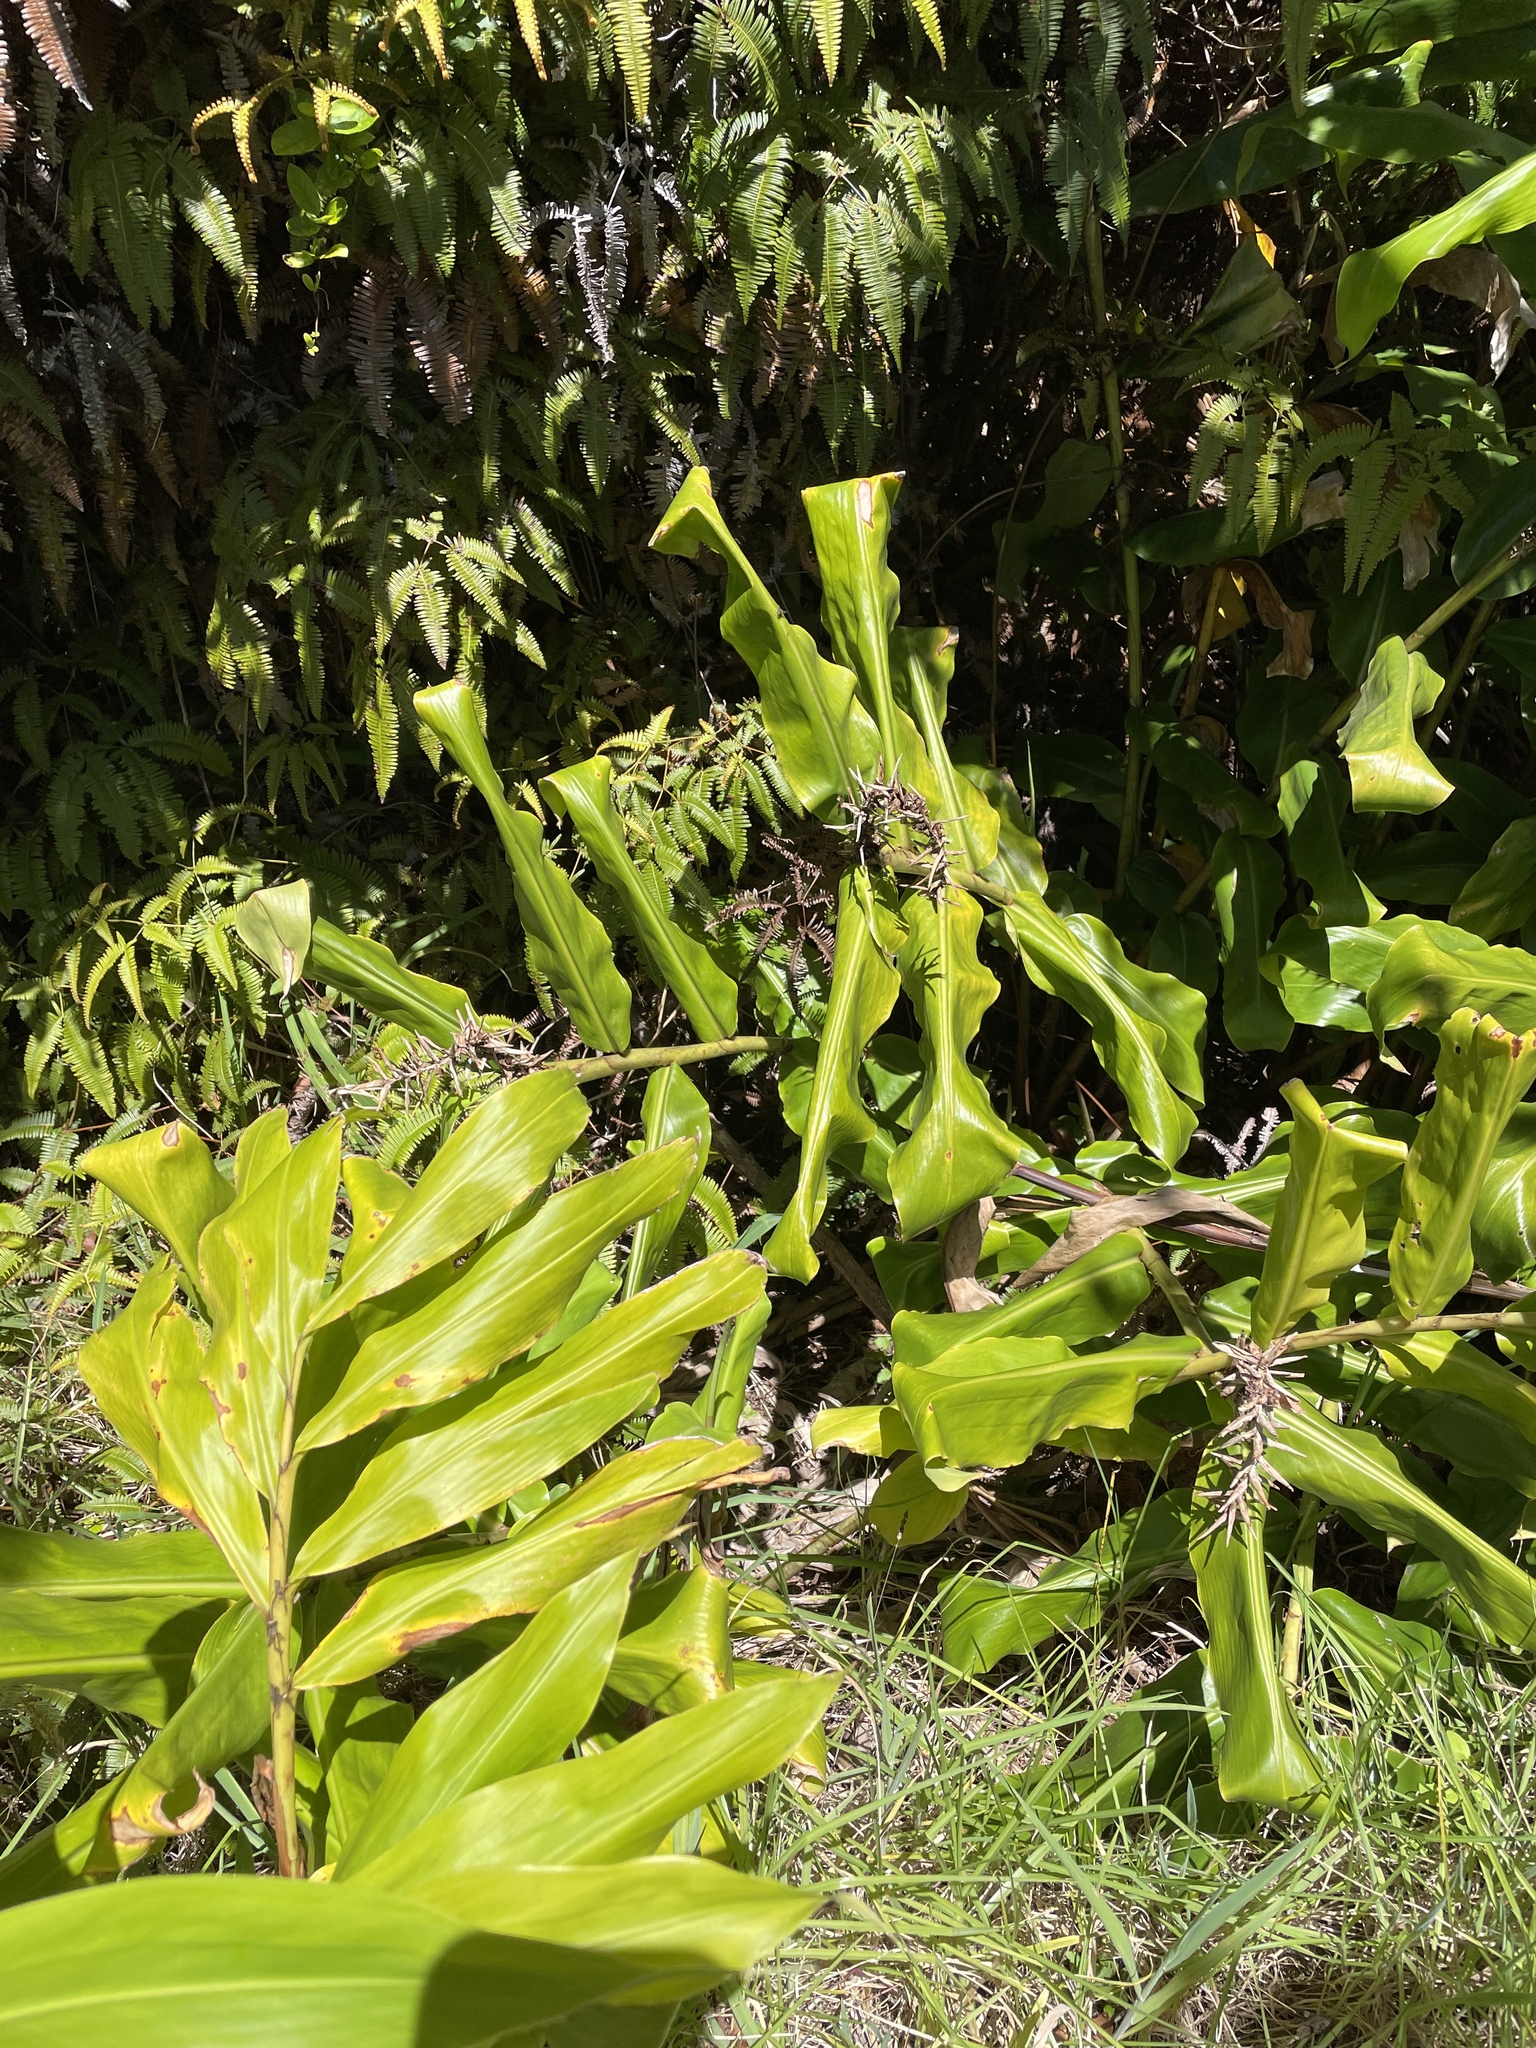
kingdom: Plantae
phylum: Tracheophyta
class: Liliopsida
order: Zingiberales
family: Zingiberaceae
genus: Hedychium
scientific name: Hedychium gardnerianum
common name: Himalayan ginger
